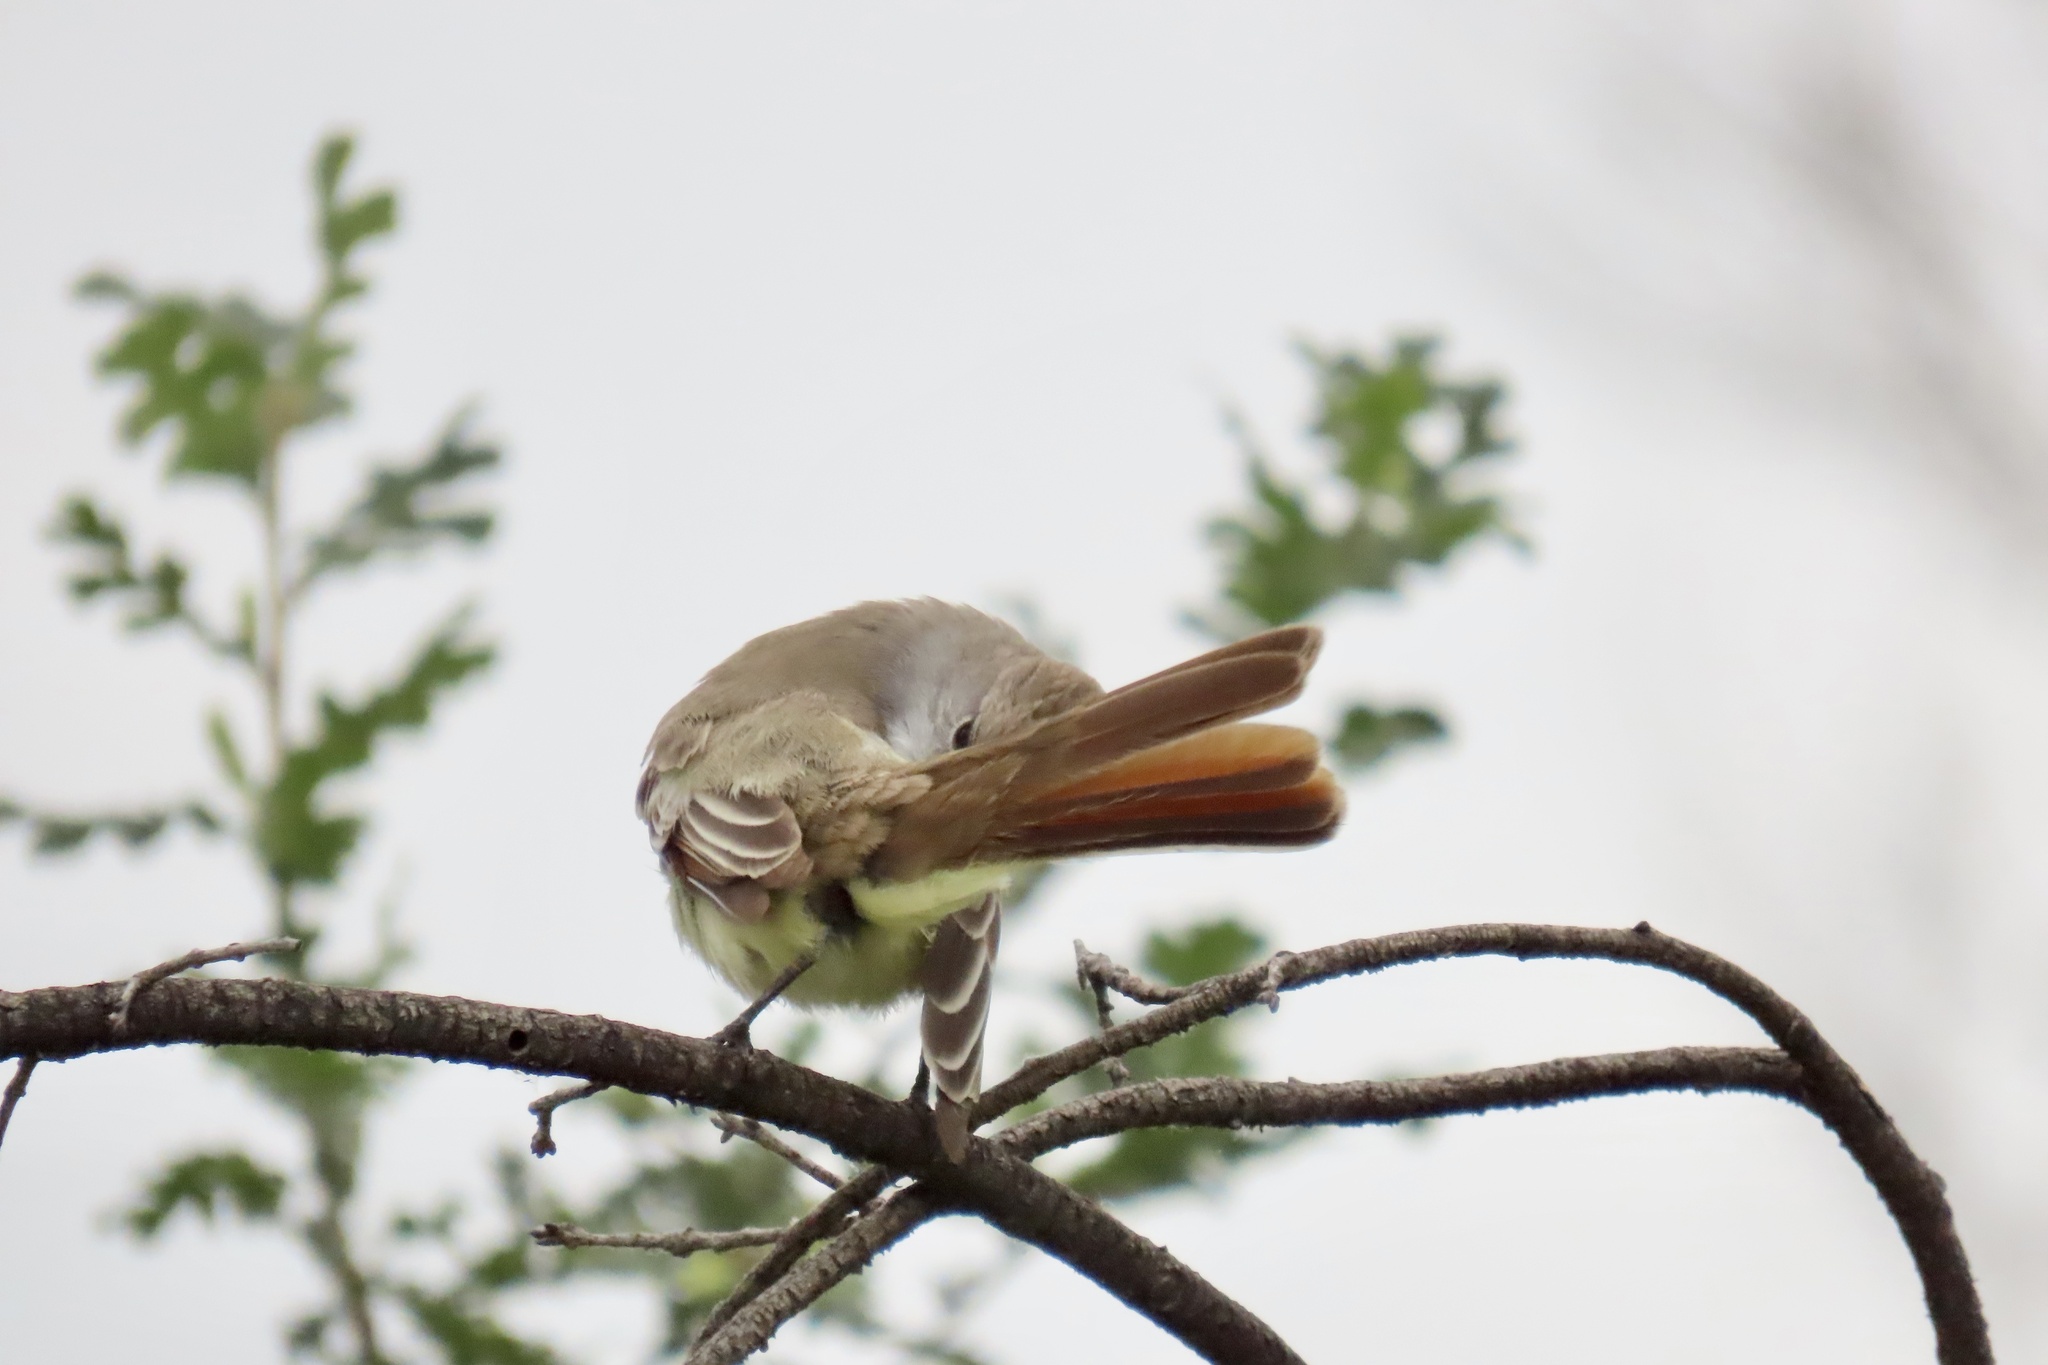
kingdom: Animalia
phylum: Chordata
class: Aves
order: Passeriformes
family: Tyrannidae
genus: Myiarchus
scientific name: Myiarchus cinerascens
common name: Ash-throated flycatcher
